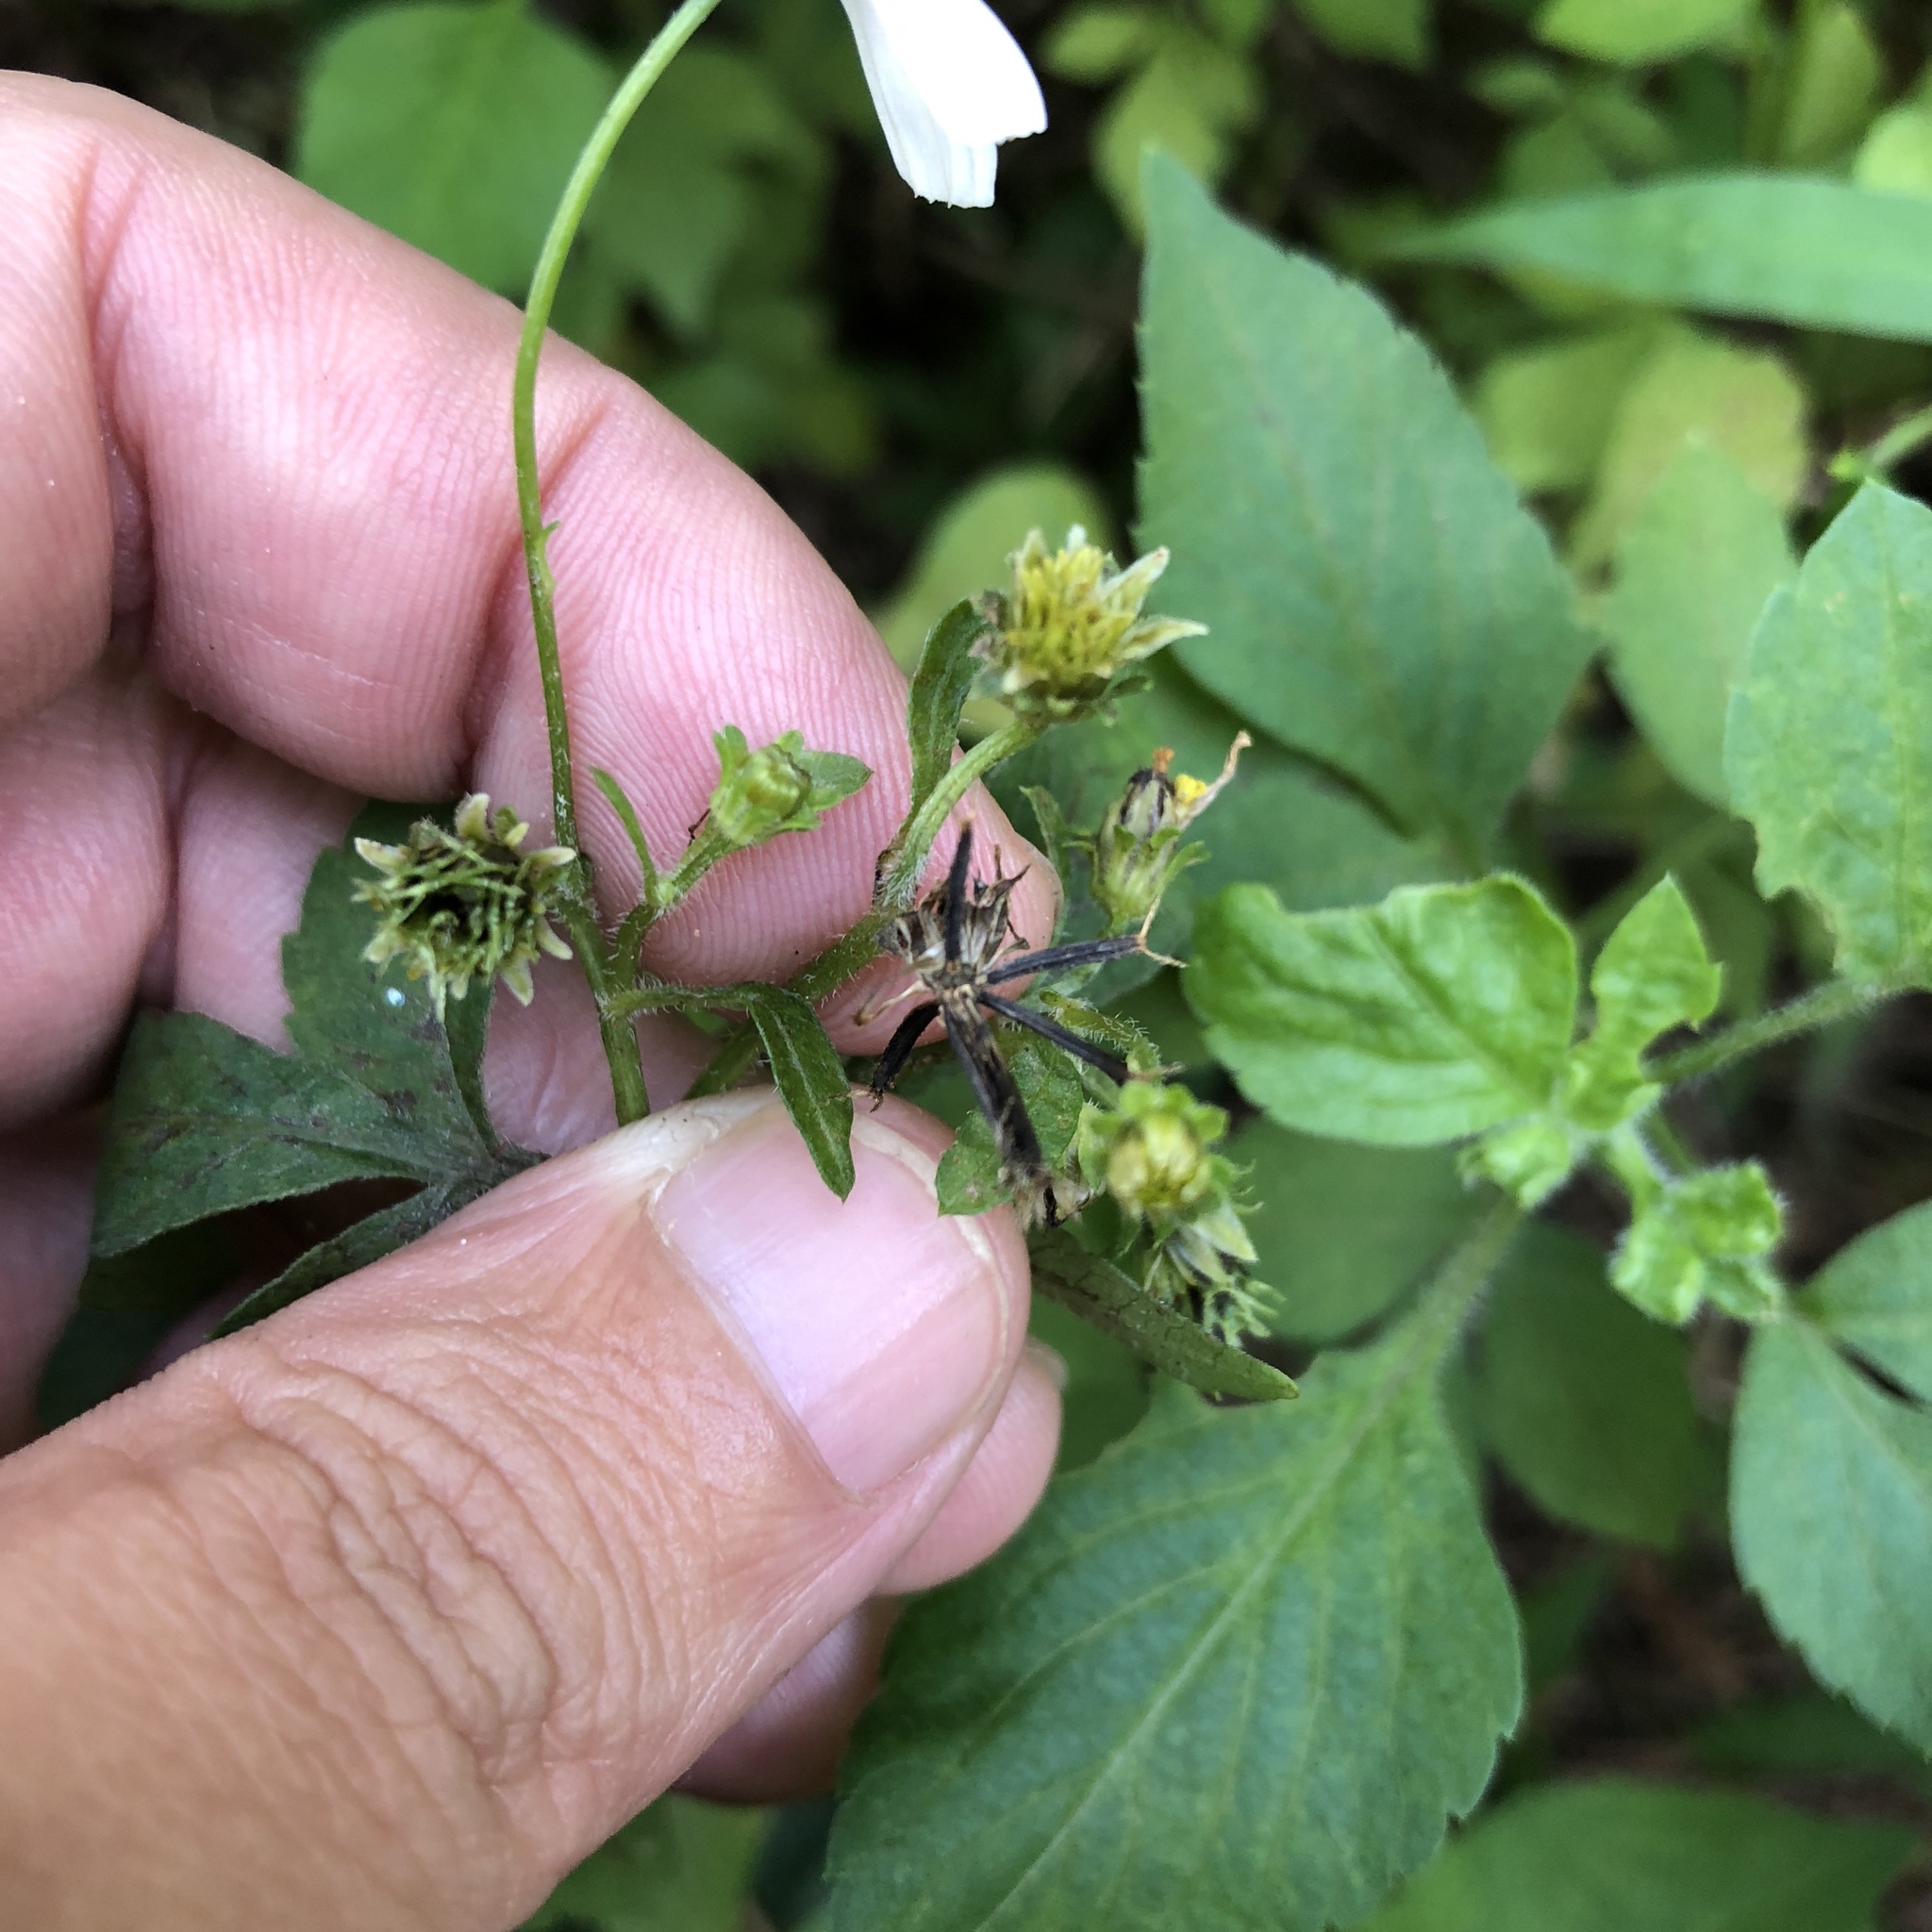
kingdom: Plantae
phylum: Tracheophyta
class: Magnoliopsida
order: Asterales
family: Asteraceae
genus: Bidens
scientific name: Bidens alba
